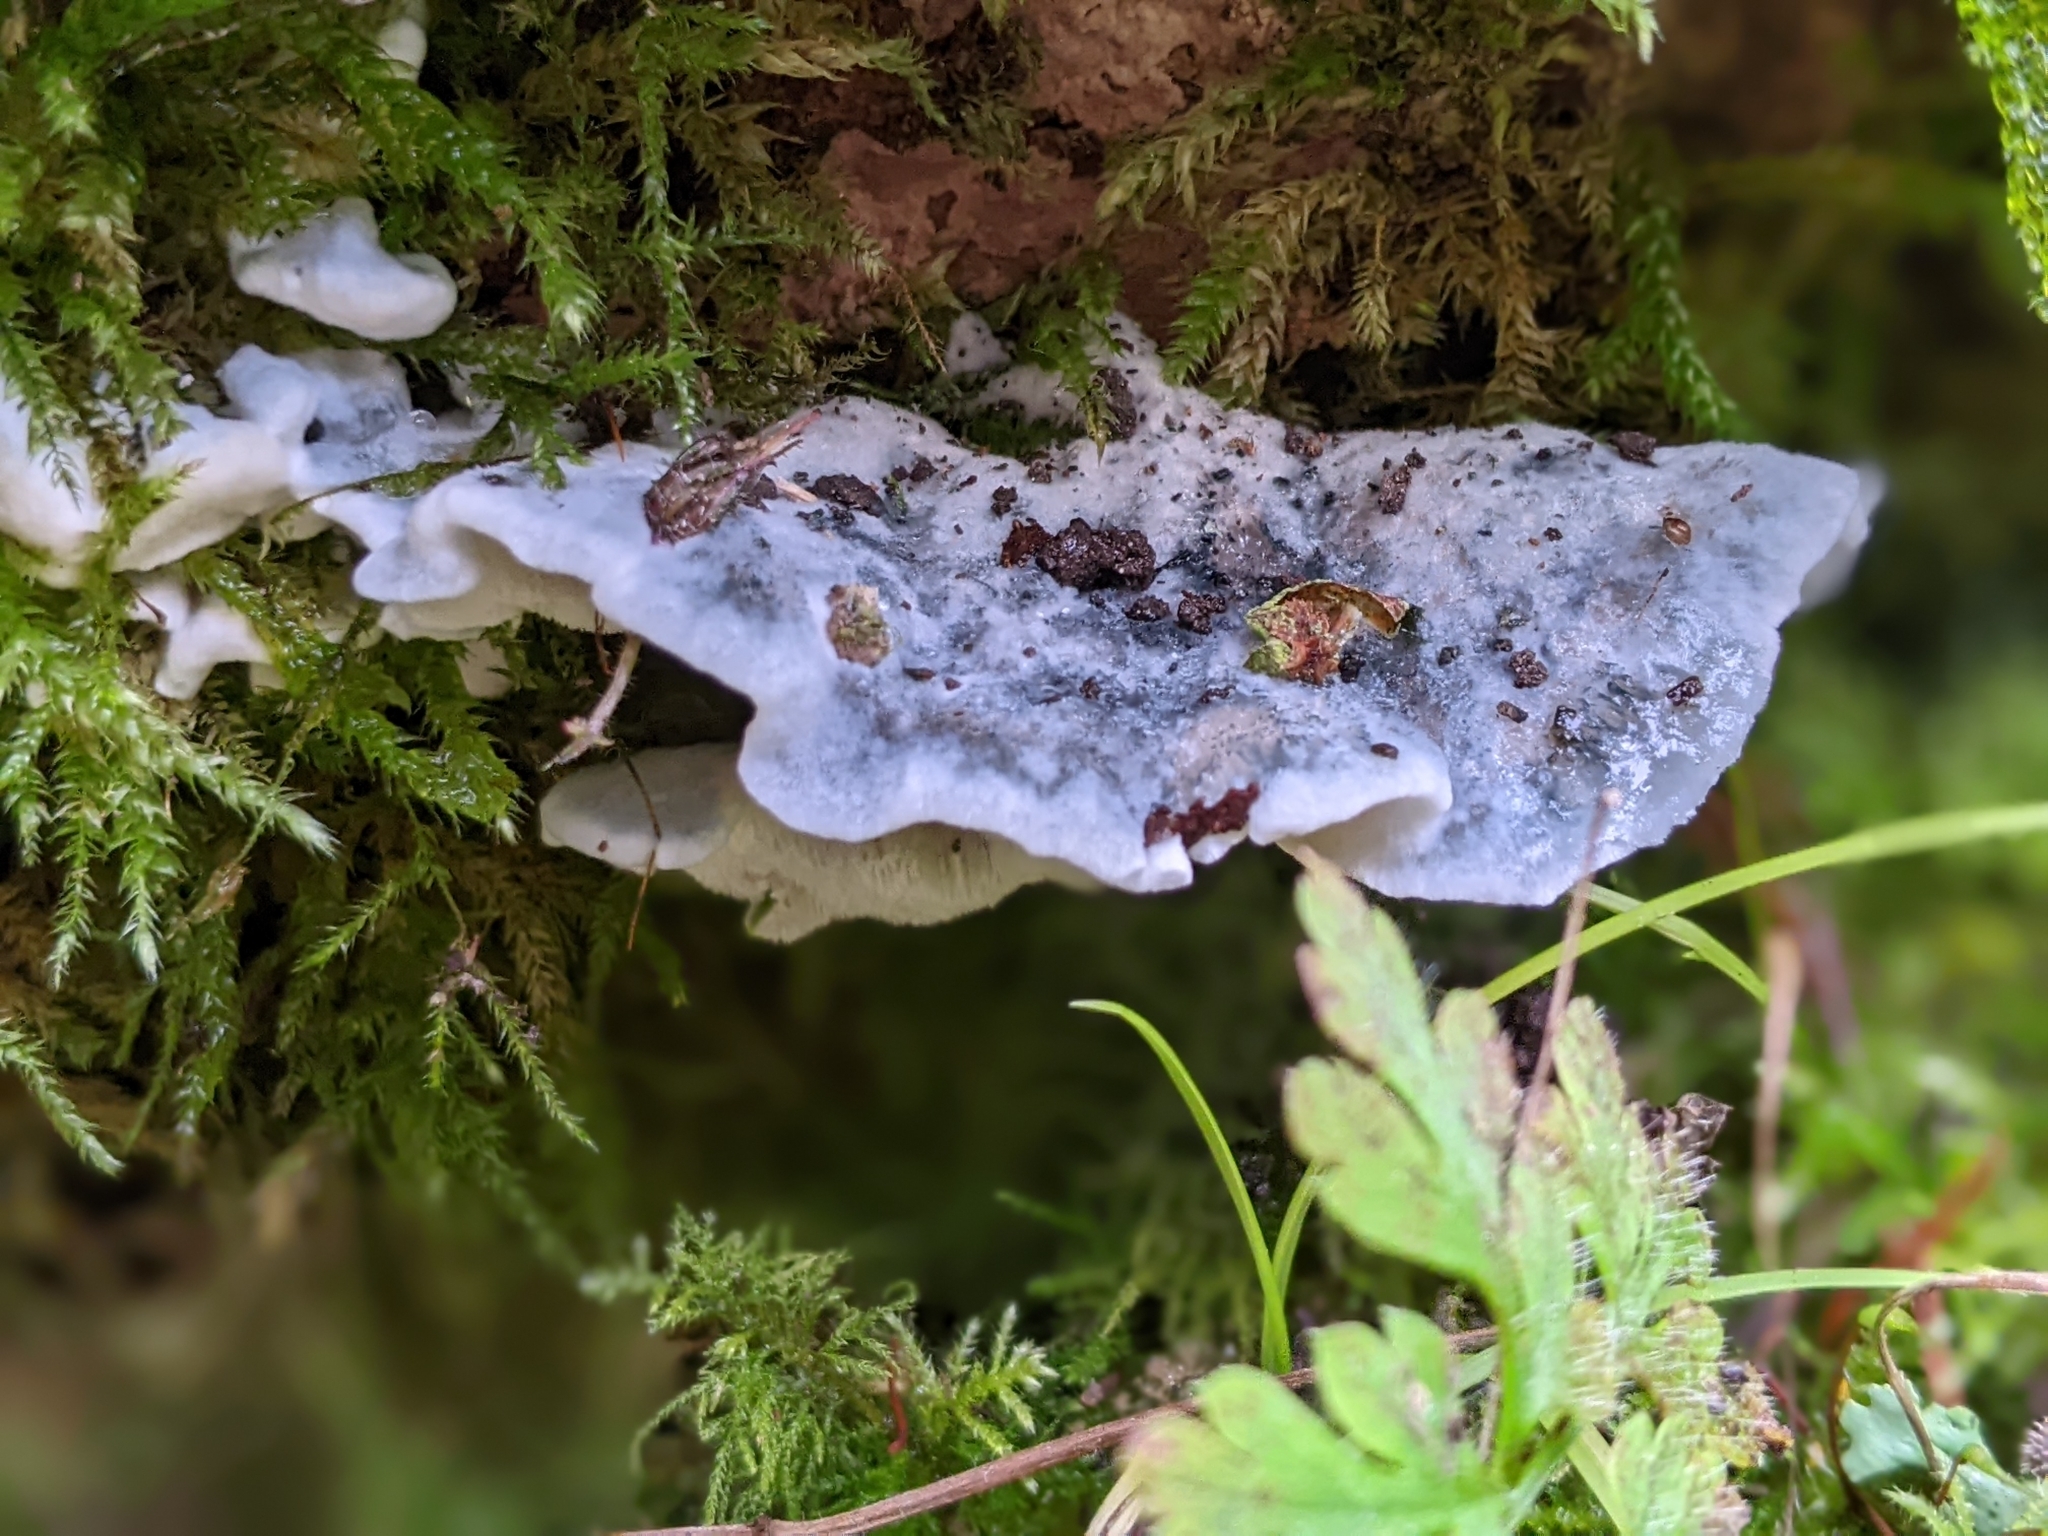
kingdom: Fungi
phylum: Basidiomycota
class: Agaricomycetes
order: Polyporales
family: Polyporaceae
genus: Cyanosporus
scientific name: Cyanosporus caesius
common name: Blue cheese polypore
